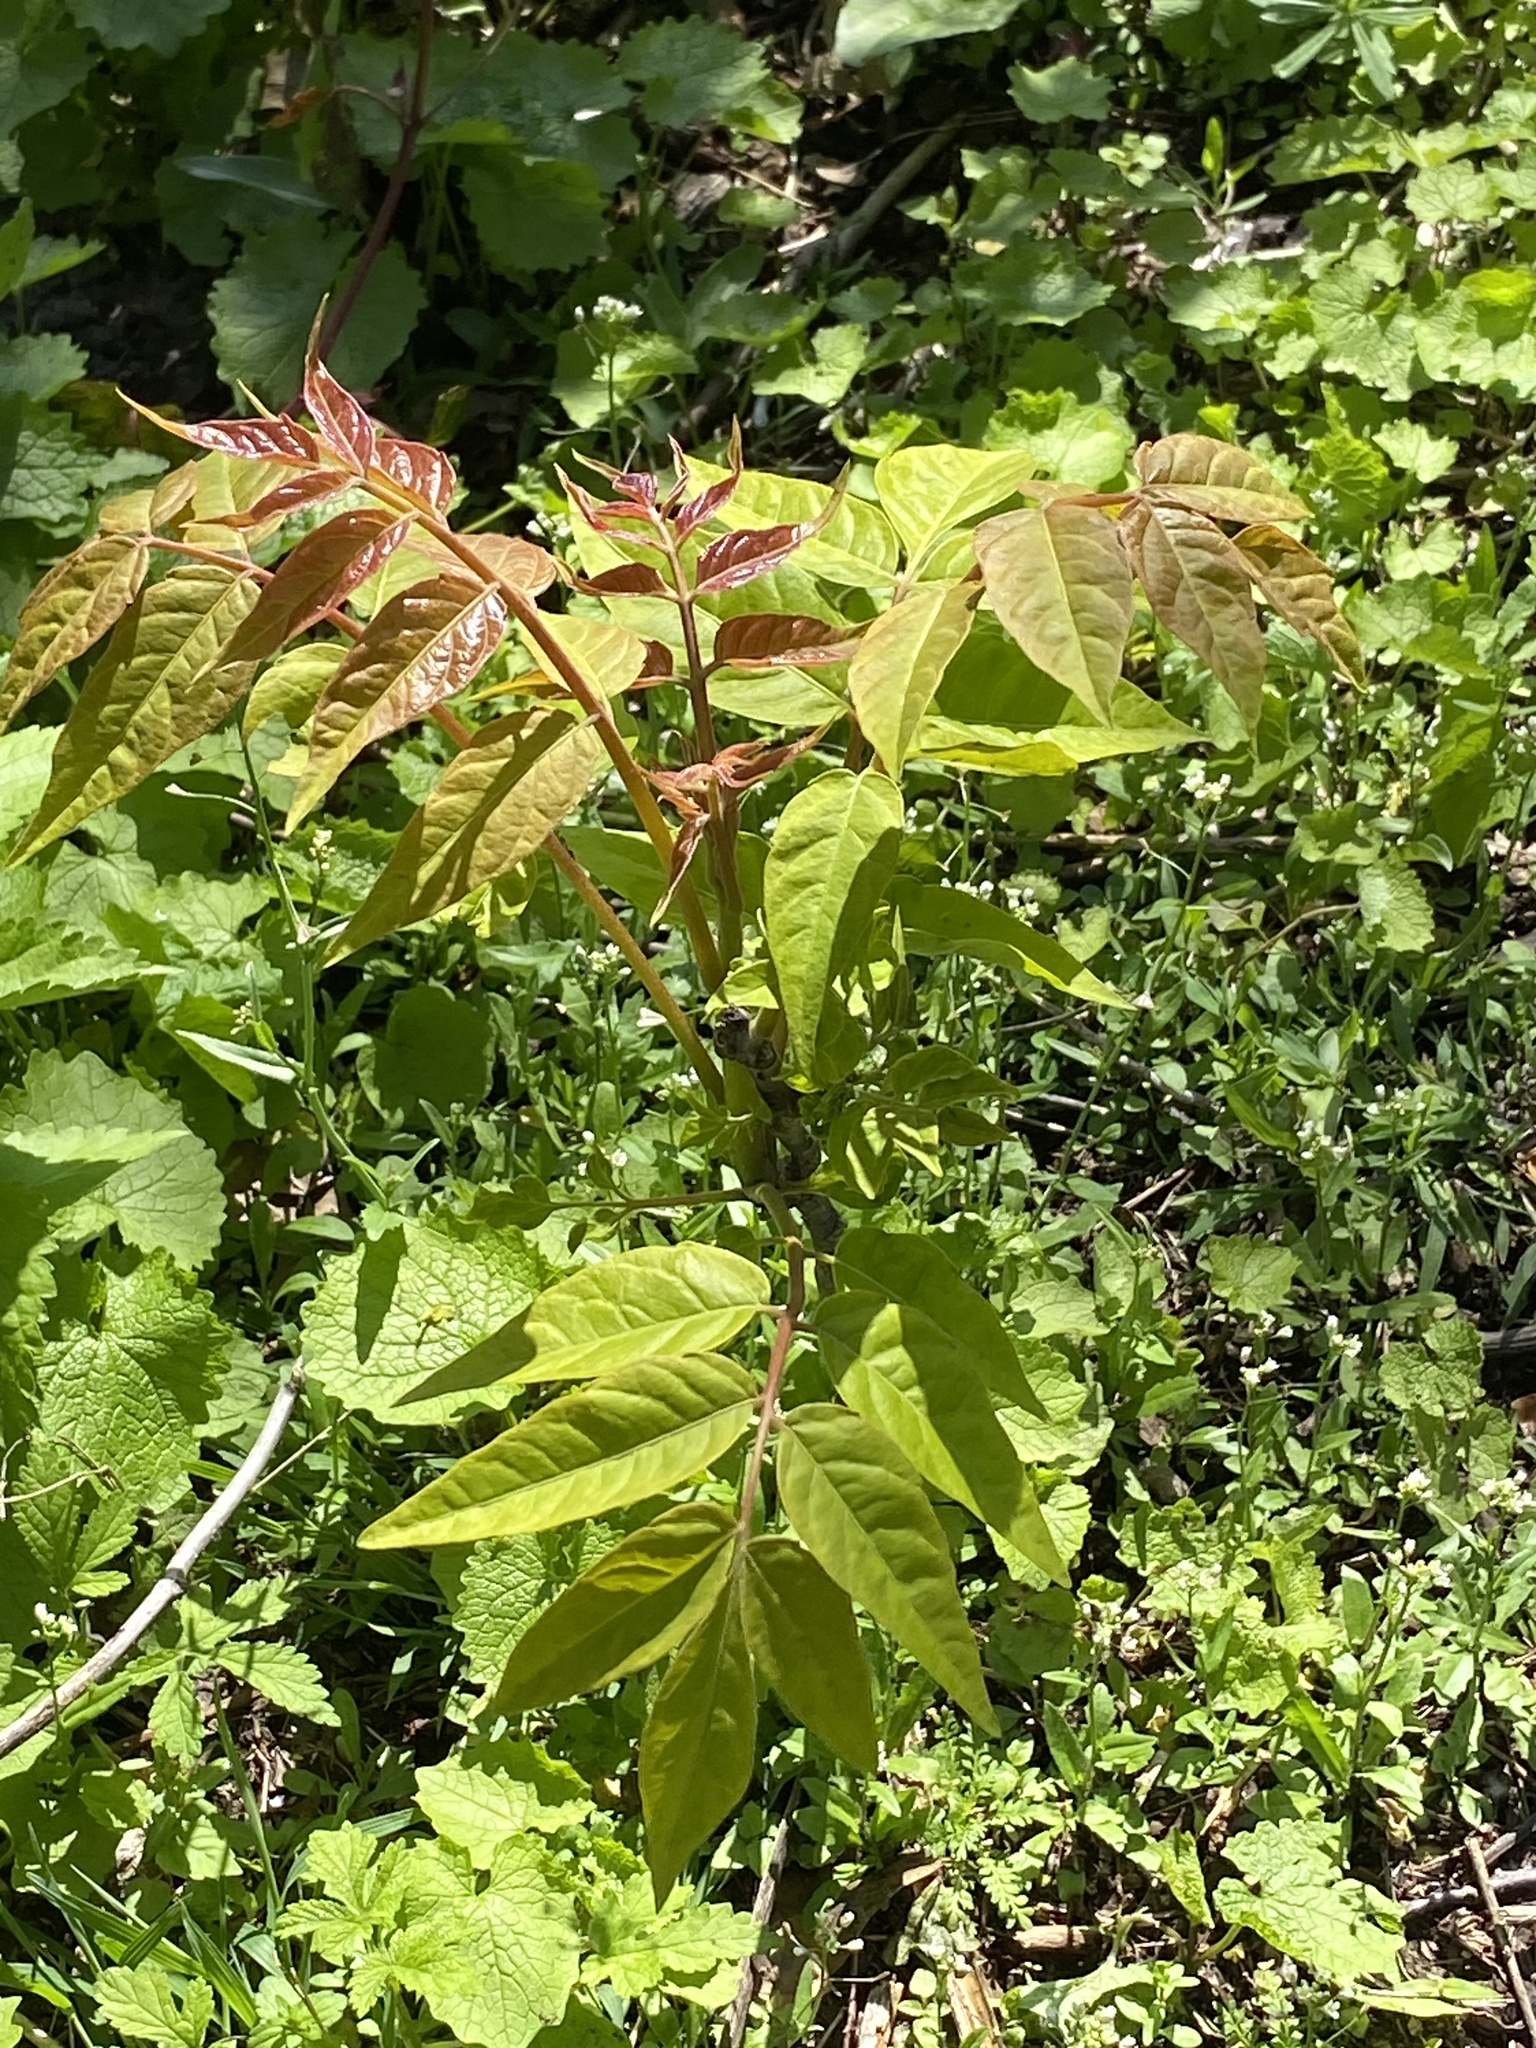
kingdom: Plantae
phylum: Tracheophyta
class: Magnoliopsida
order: Sapindales
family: Simaroubaceae
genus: Ailanthus
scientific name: Ailanthus altissima
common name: Tree-of-heaven
